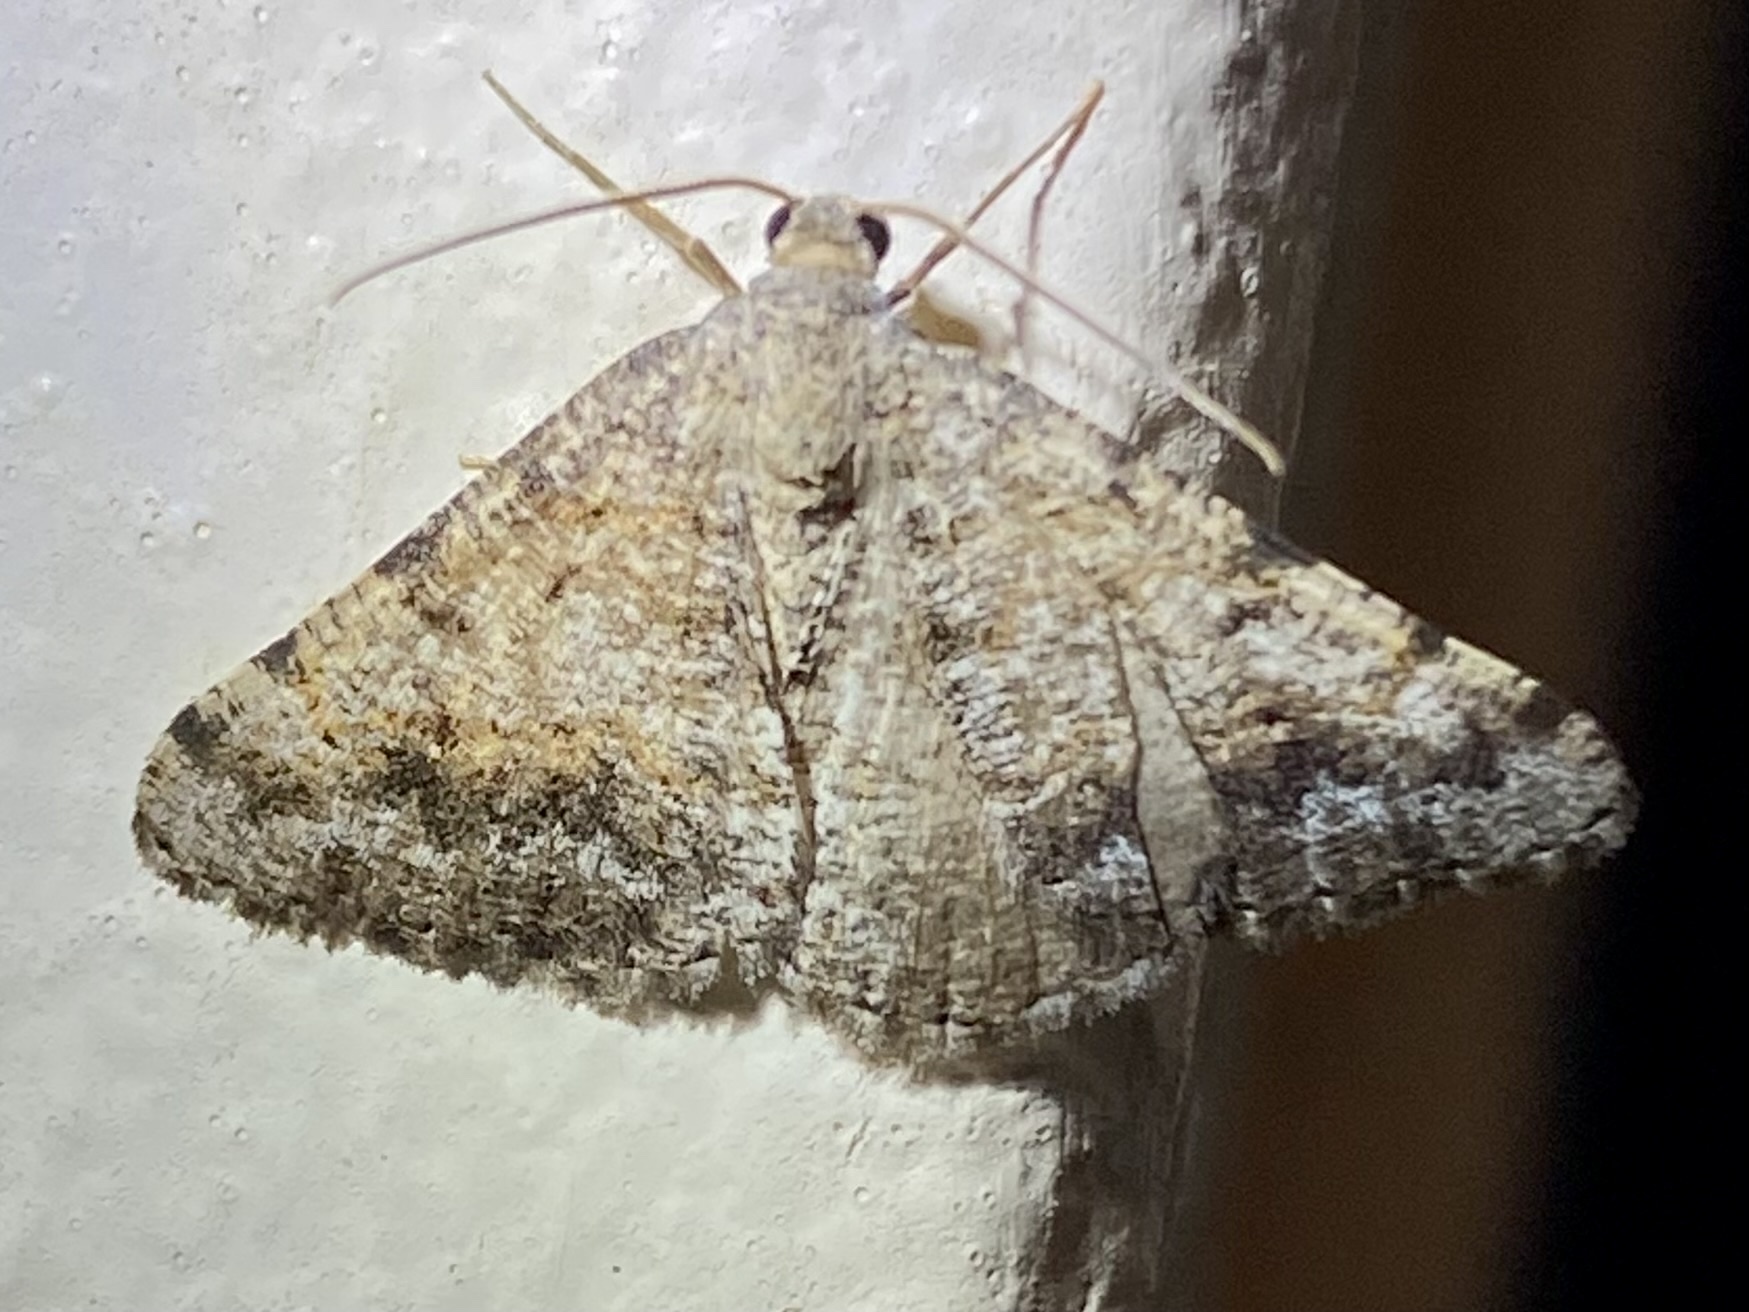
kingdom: Animalia
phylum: Arthropoda
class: Insecta
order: Lepidoptera
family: Geometridae
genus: Digrammia
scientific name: Digrammia colorata
